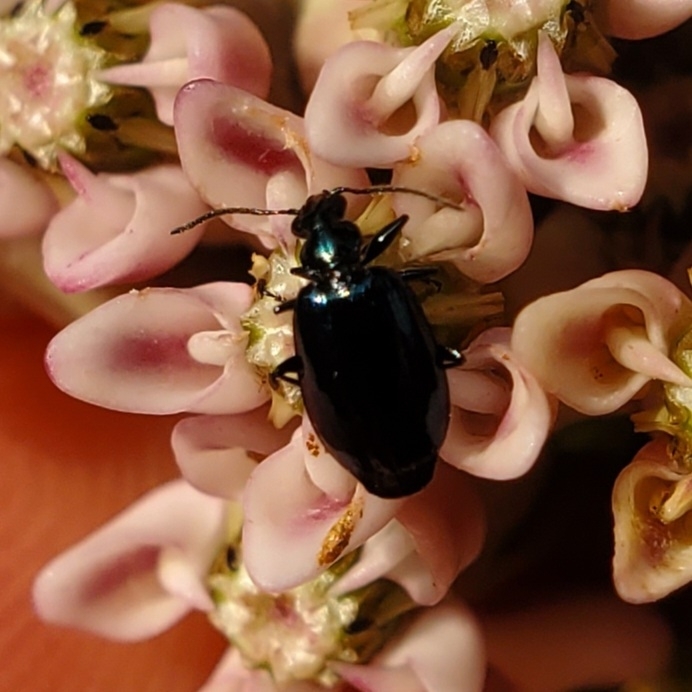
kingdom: Animalia
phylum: Arthropoda
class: Insecta
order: Coleoptera
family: Carabidae
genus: Lebia
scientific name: Lebia viridis
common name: Flower lebia beetle
